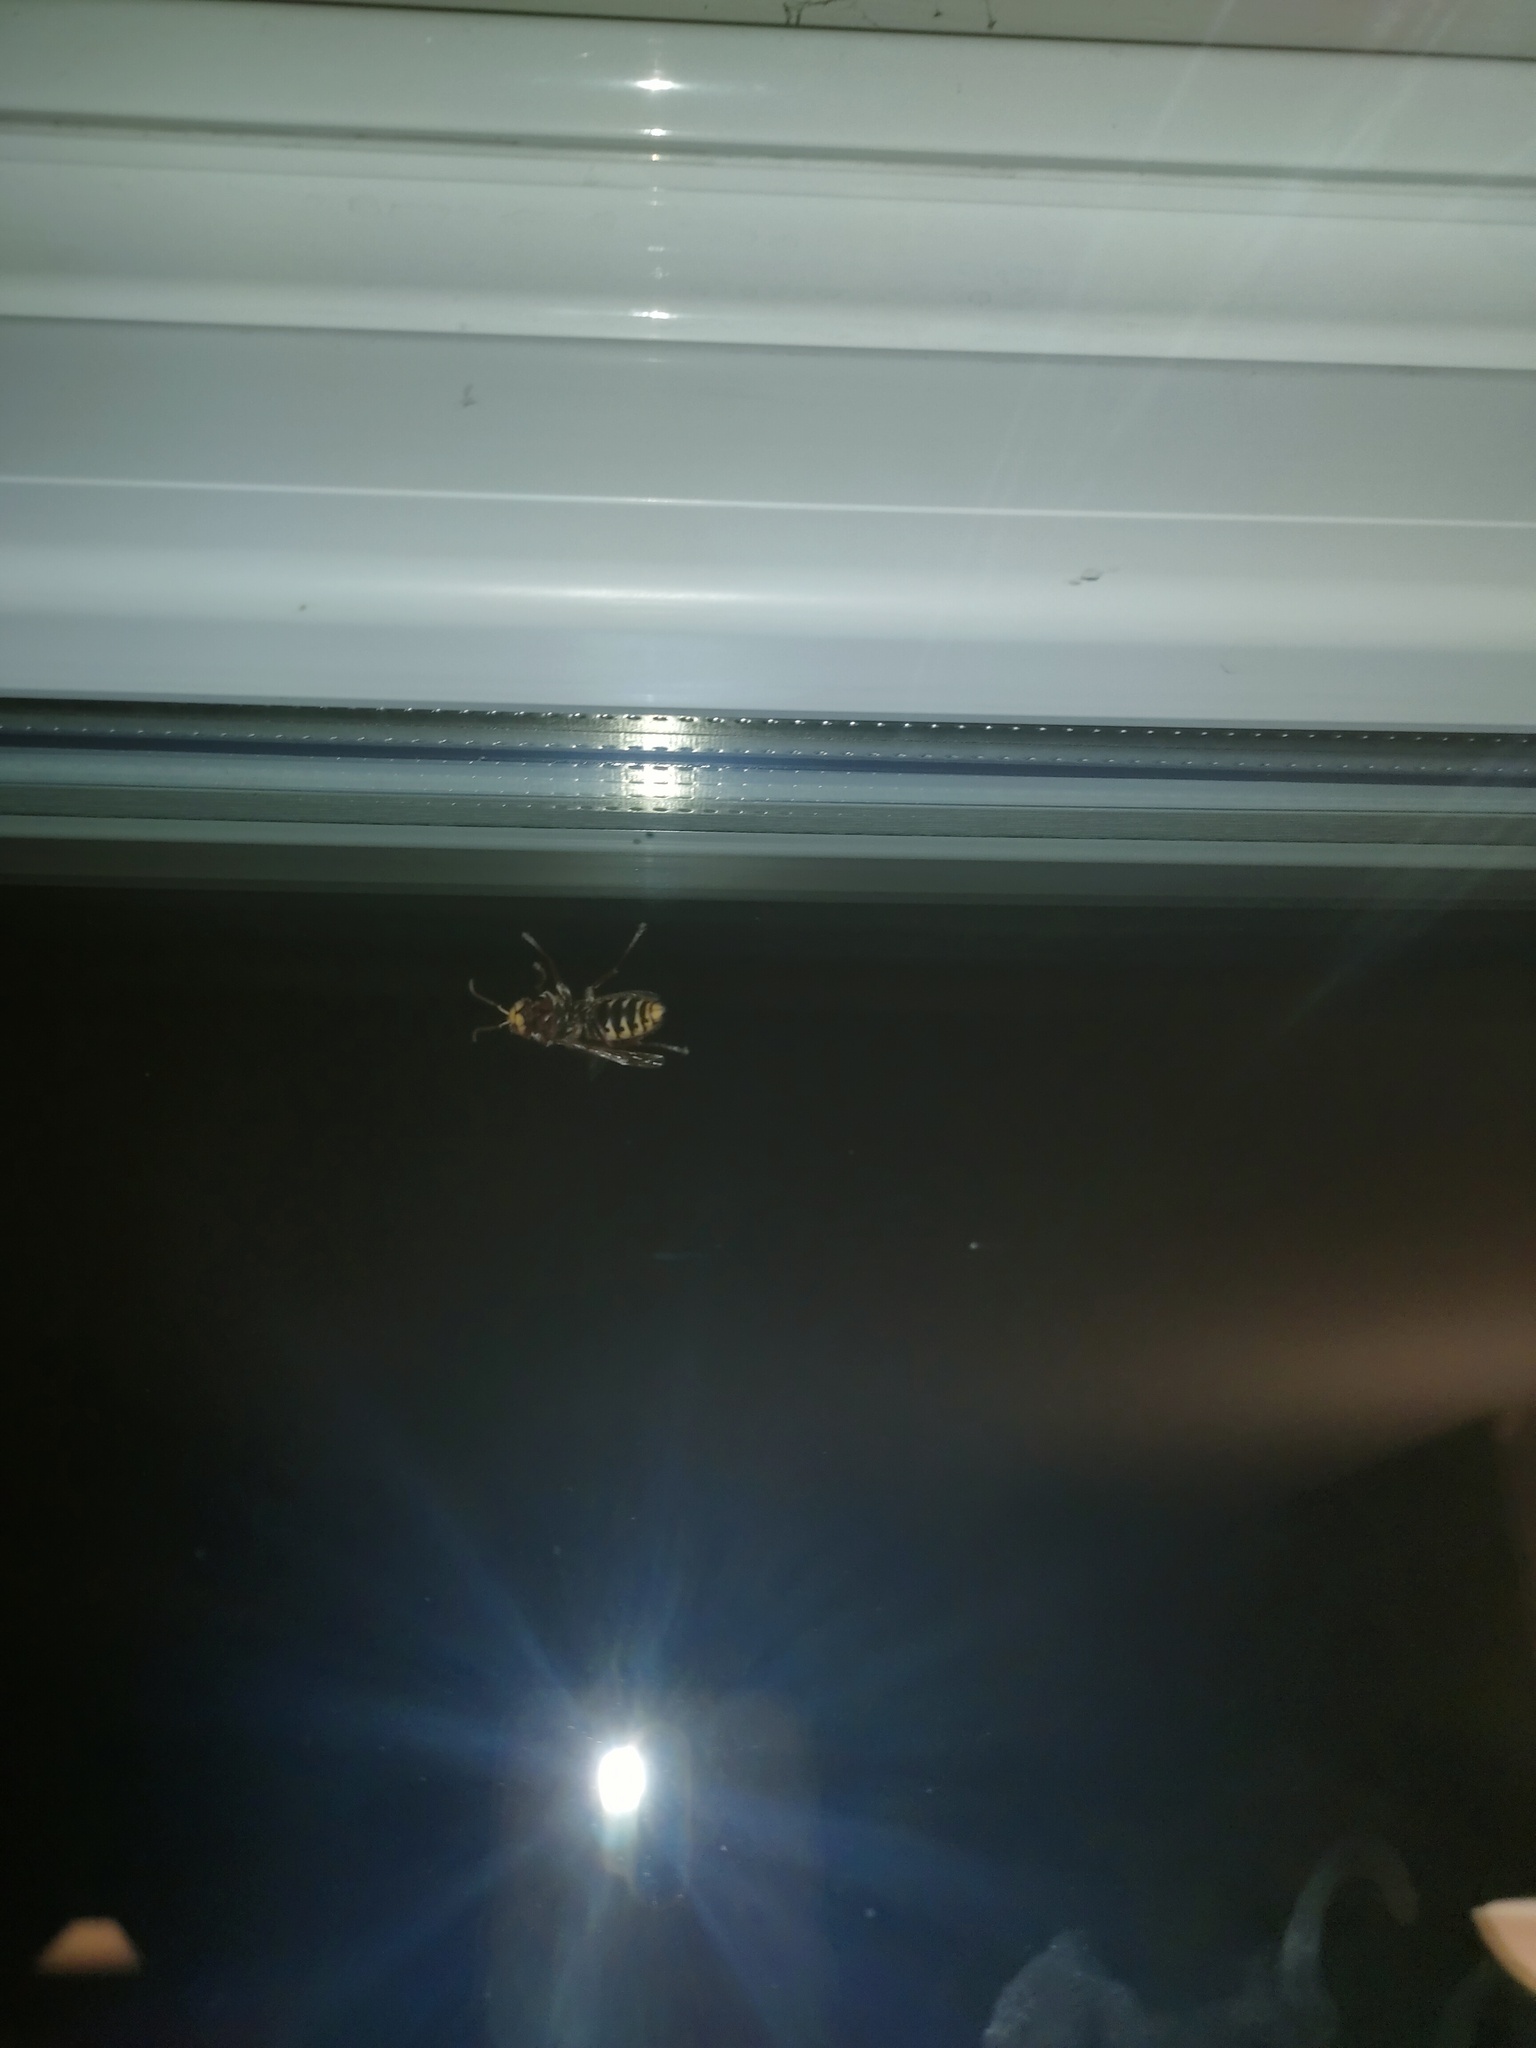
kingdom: Animalia
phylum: Arthropoda
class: Insecta
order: Hymenoptera
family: Vespidae
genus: Vespa
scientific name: Vespa crabro
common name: Hornet
